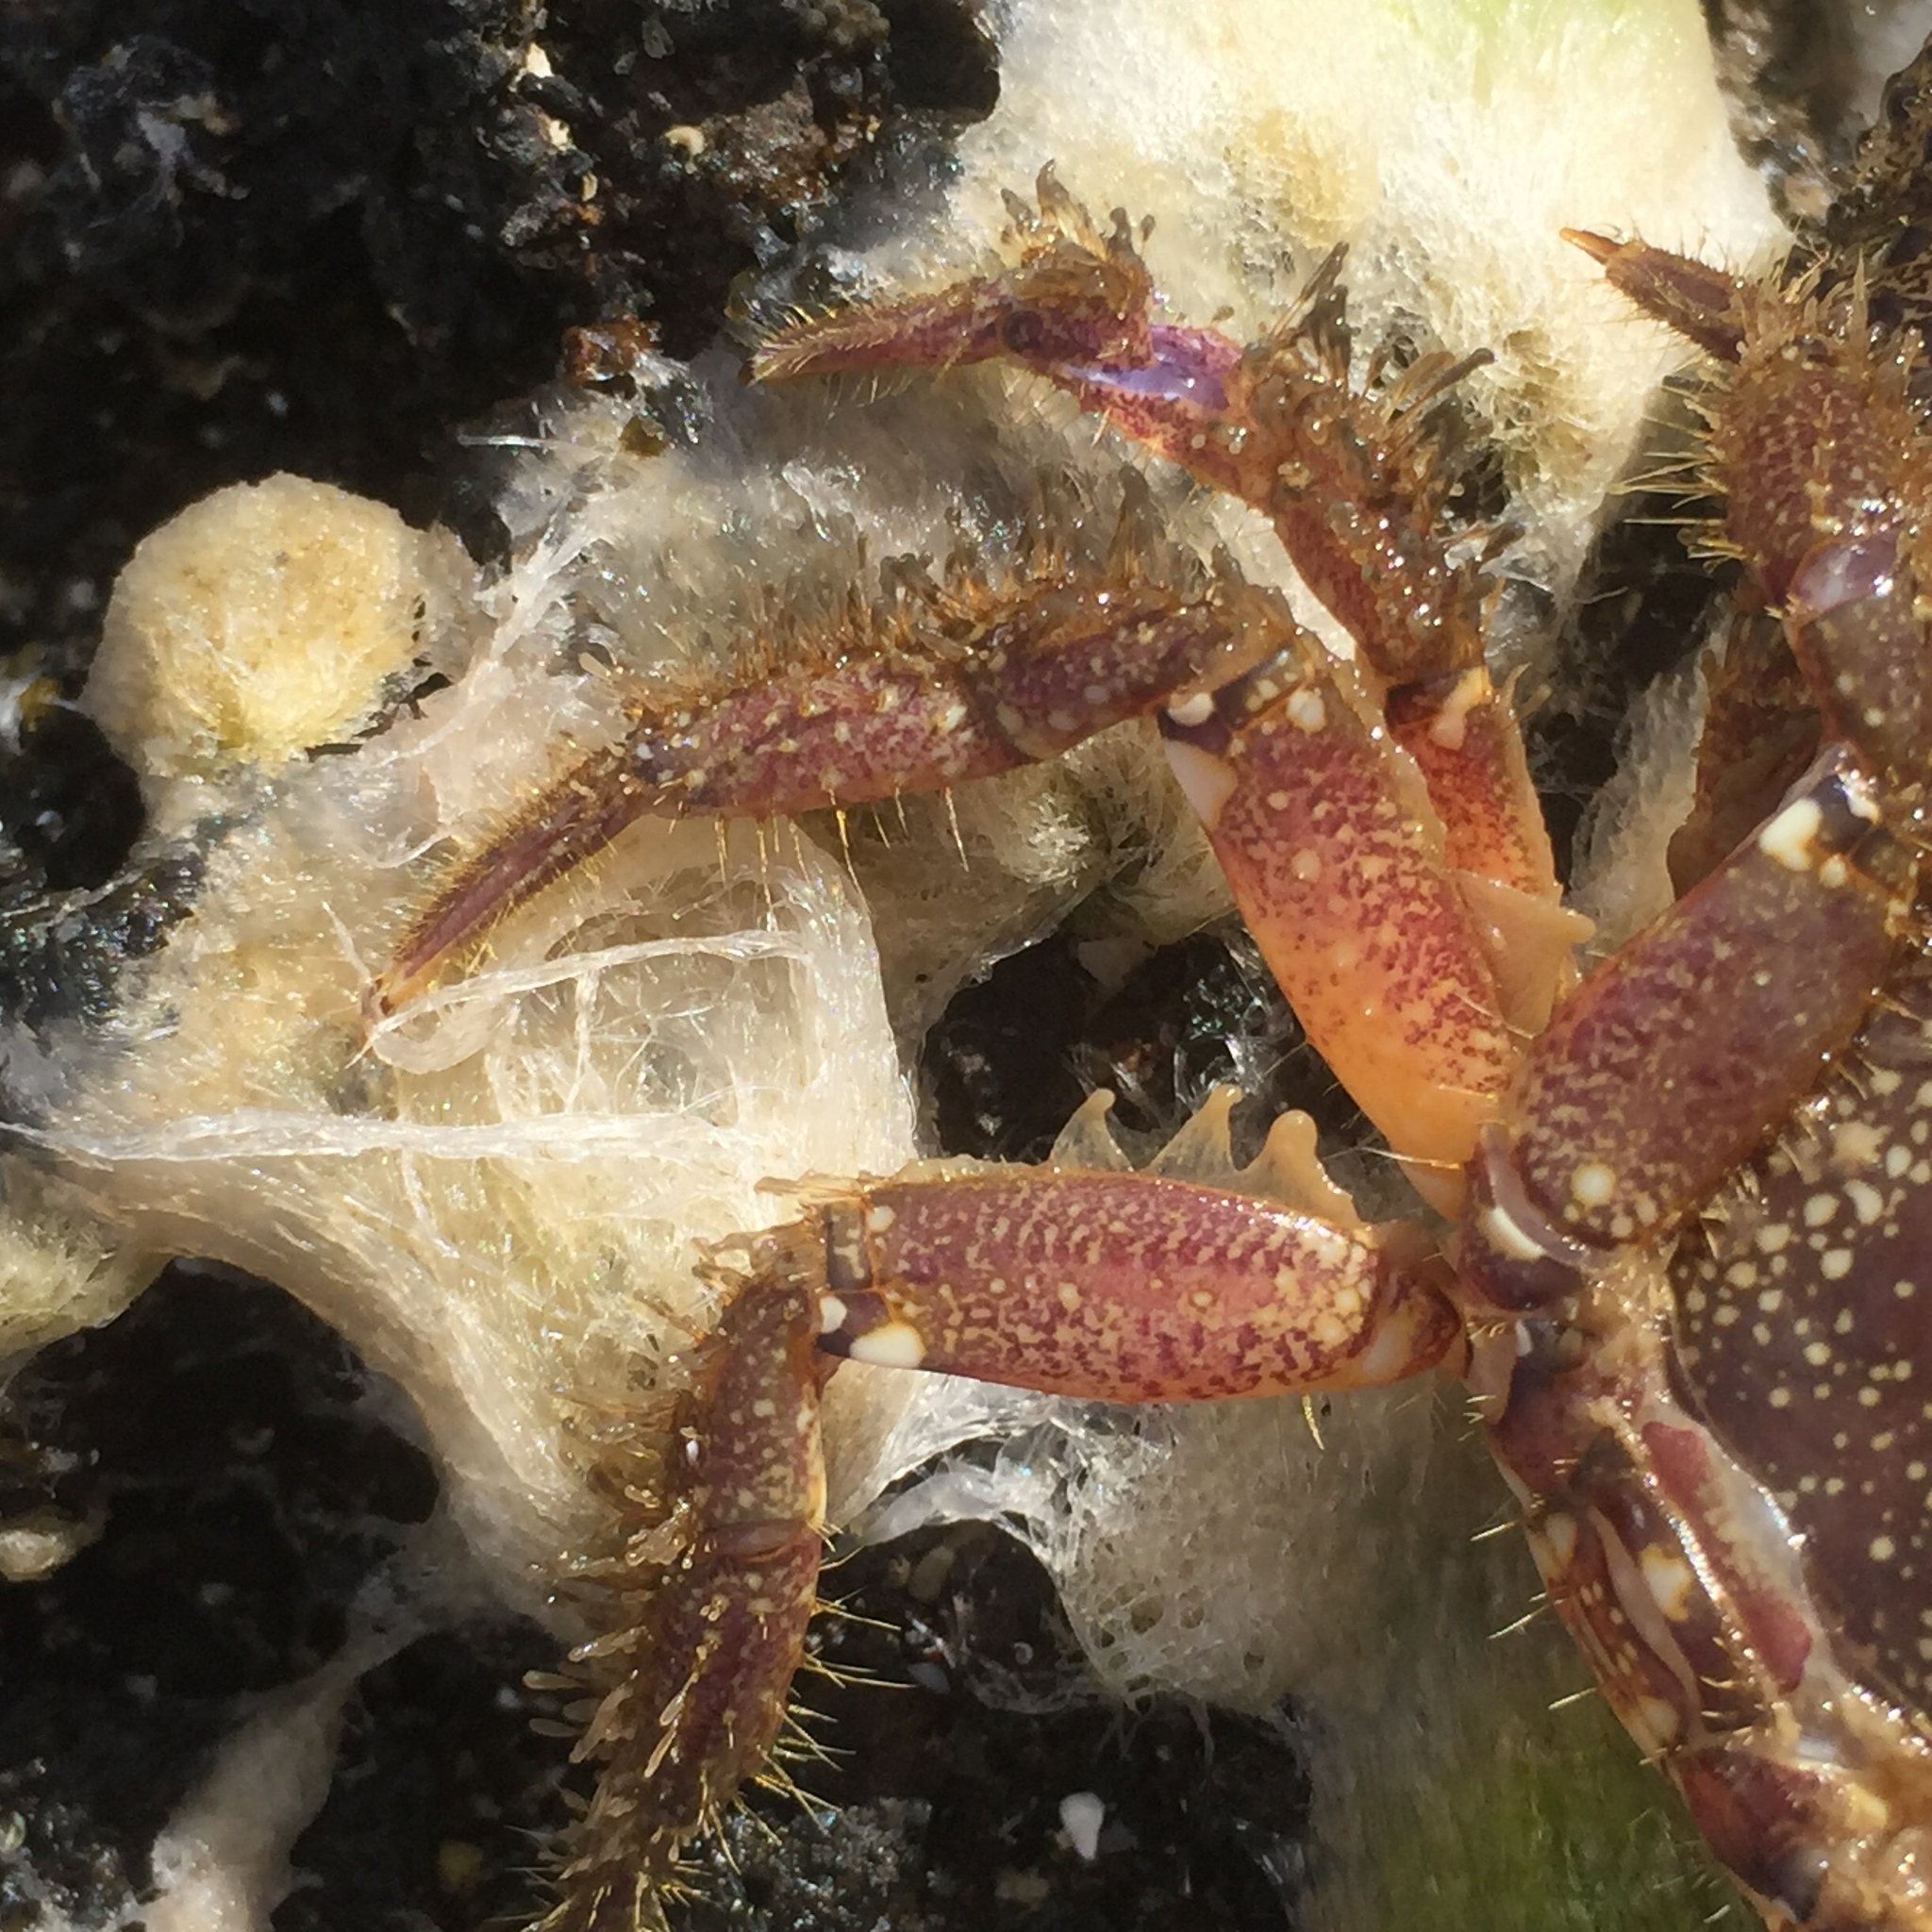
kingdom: Animalia
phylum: Arthropoda
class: Malacostraca
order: Decapoda
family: Eriphiidae
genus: Eriphia
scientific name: Eriphia verrucosa
